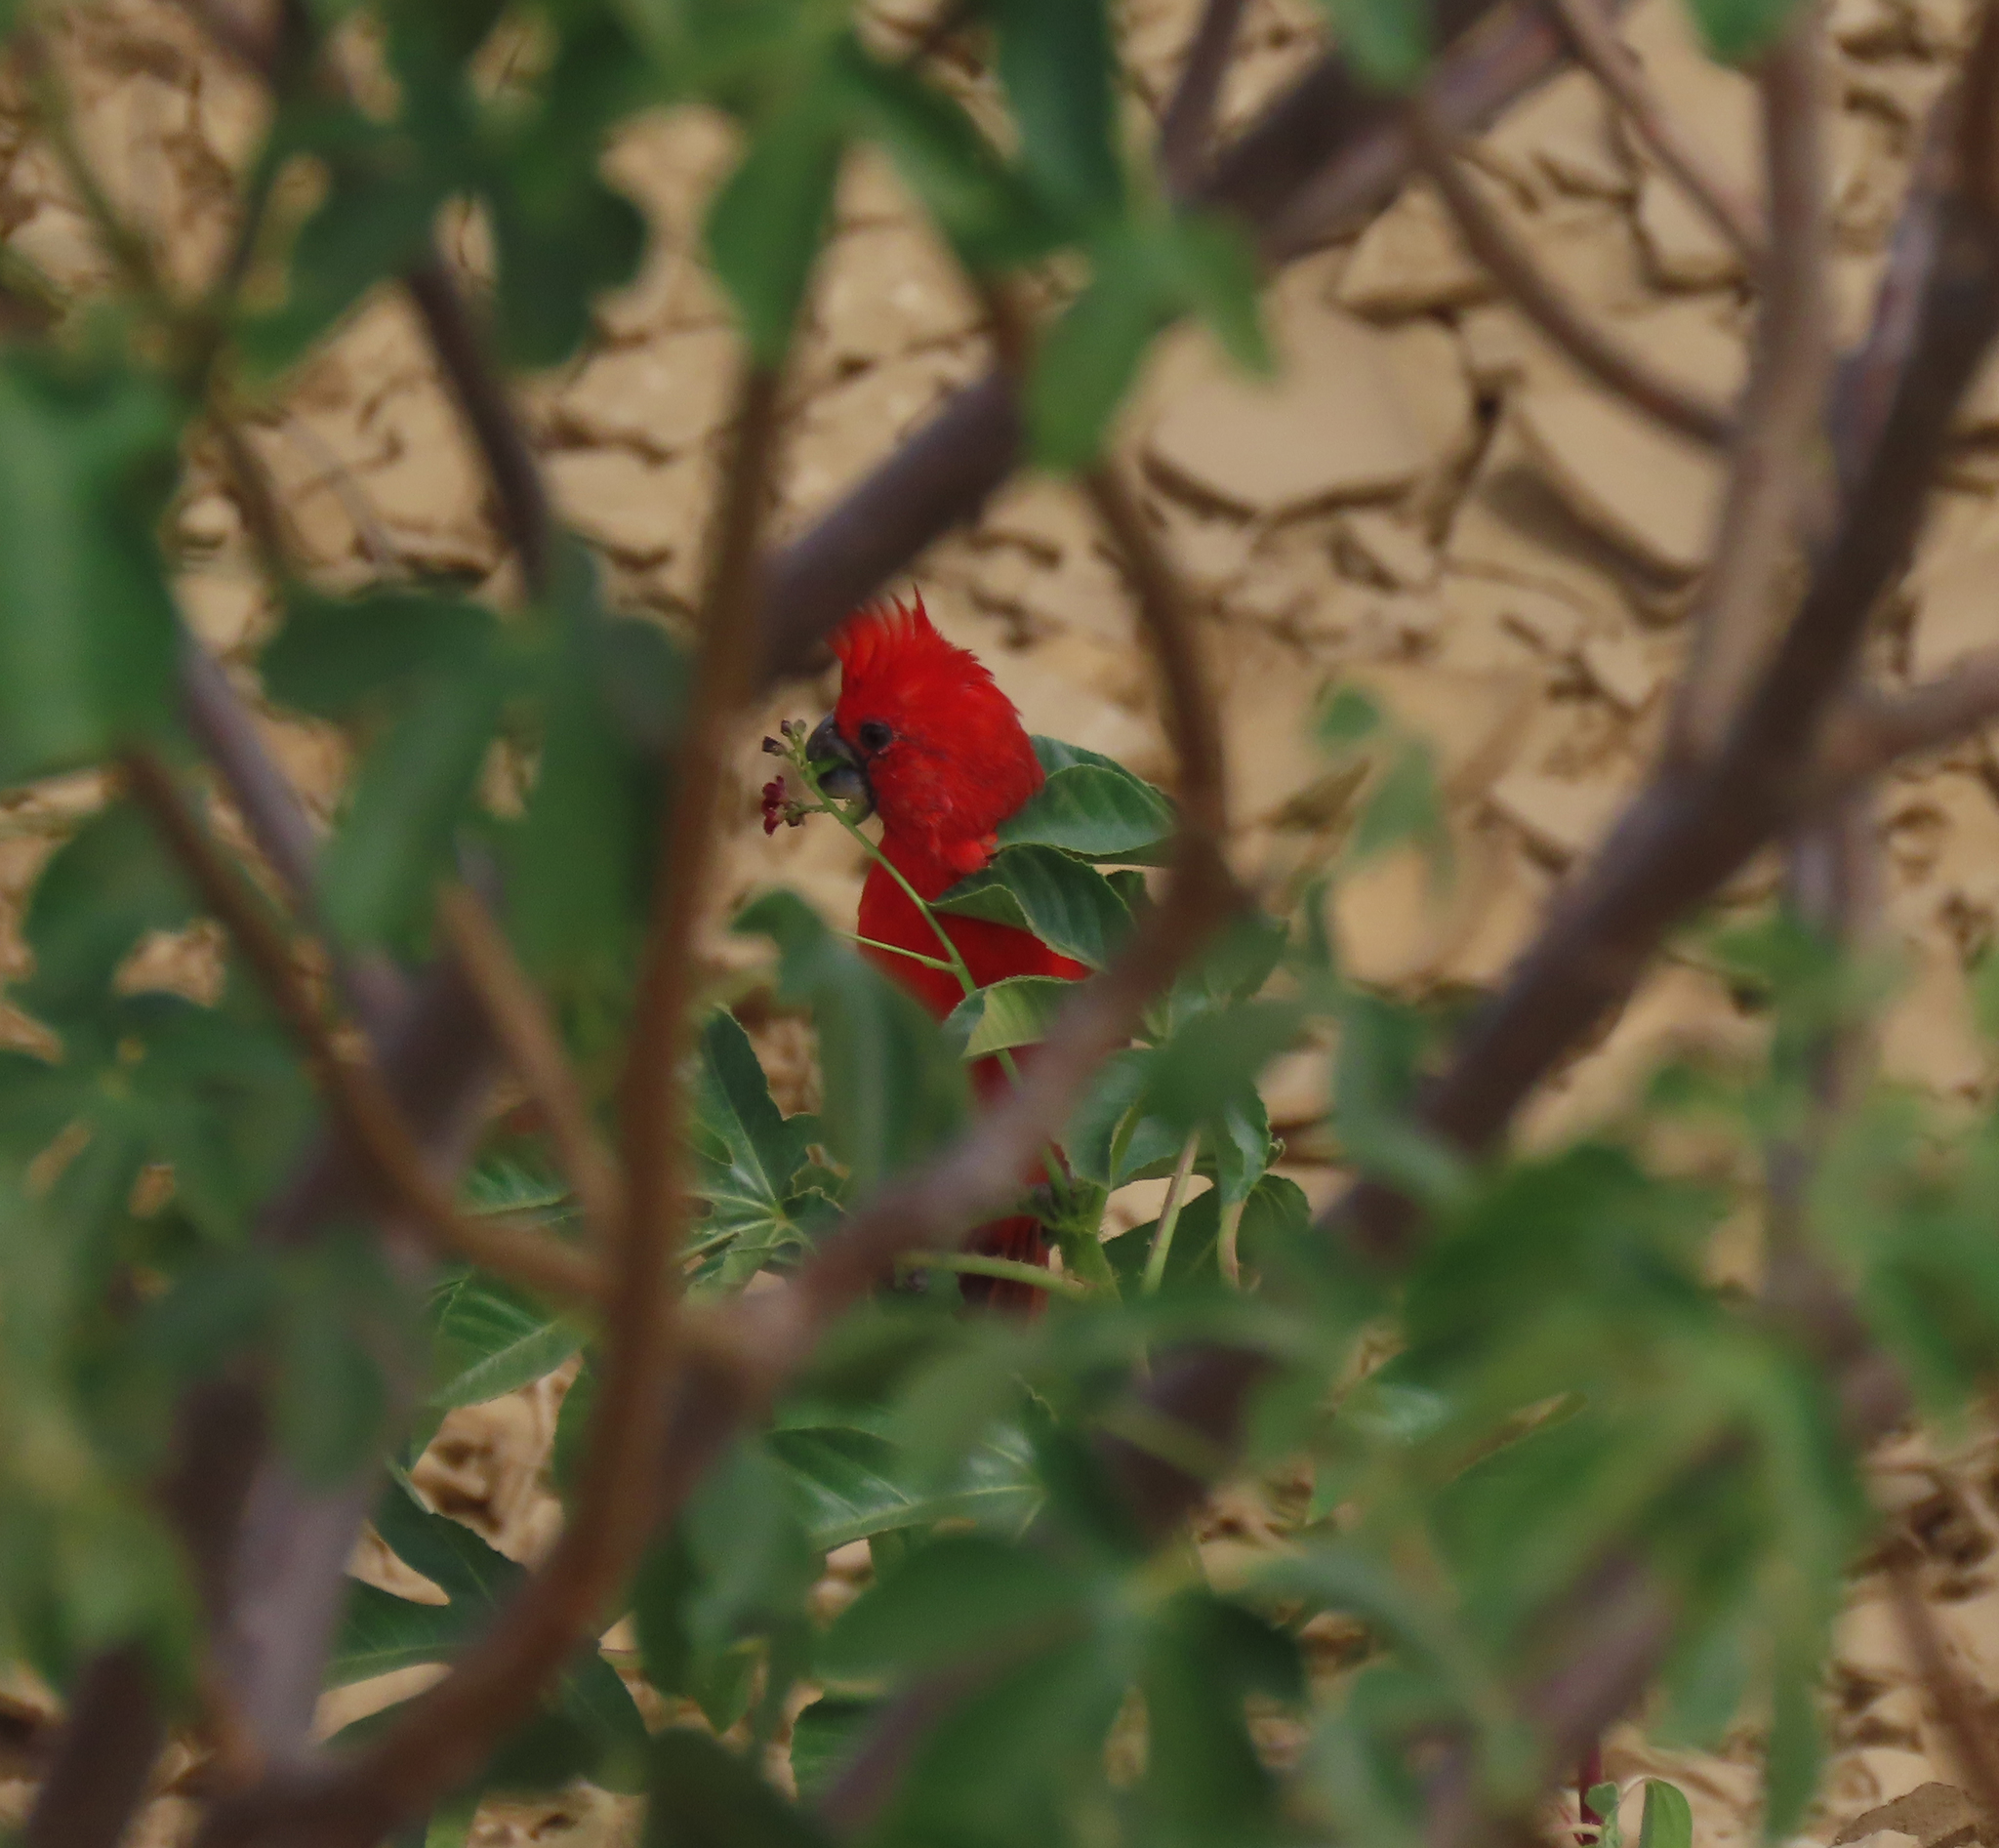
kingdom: Animalia
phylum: Chordata
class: Aves
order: Passeriformes
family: Cardinalidae
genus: Cardinalis
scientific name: Cardinalis phoeniceus
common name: Vermilion cardinal
